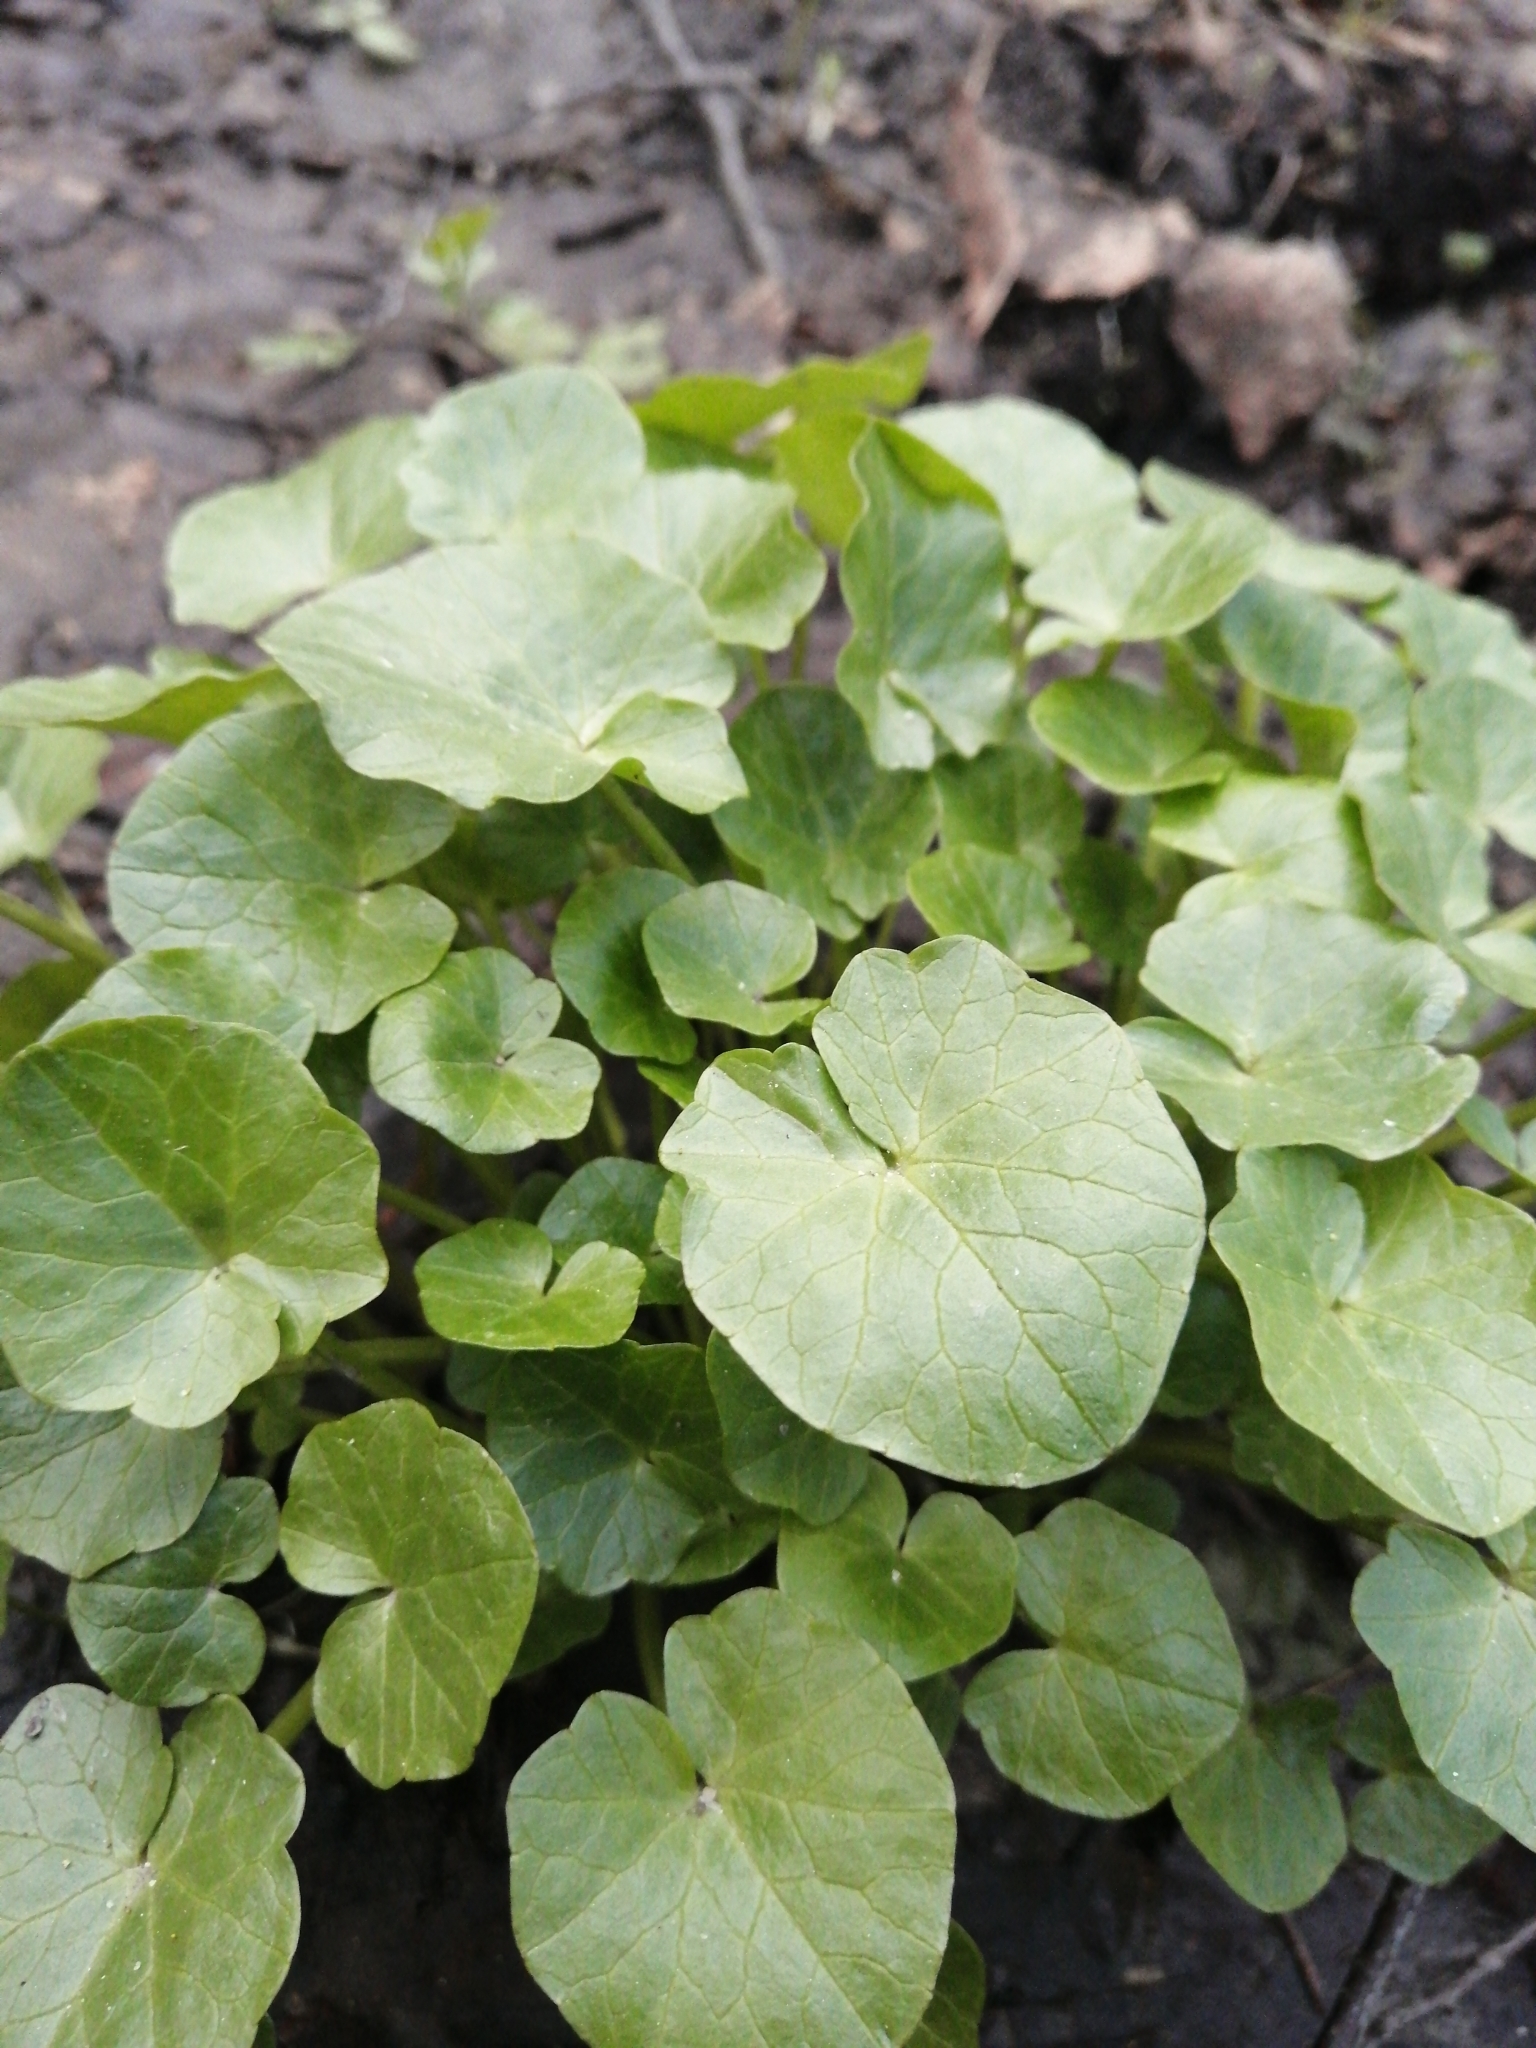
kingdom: Plantae
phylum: Tracheophyta
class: Magnoliopsida
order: Ranunculales
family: Ranunculaceae
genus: Ficaria
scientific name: Ficaria verna
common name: Lesser celandine
